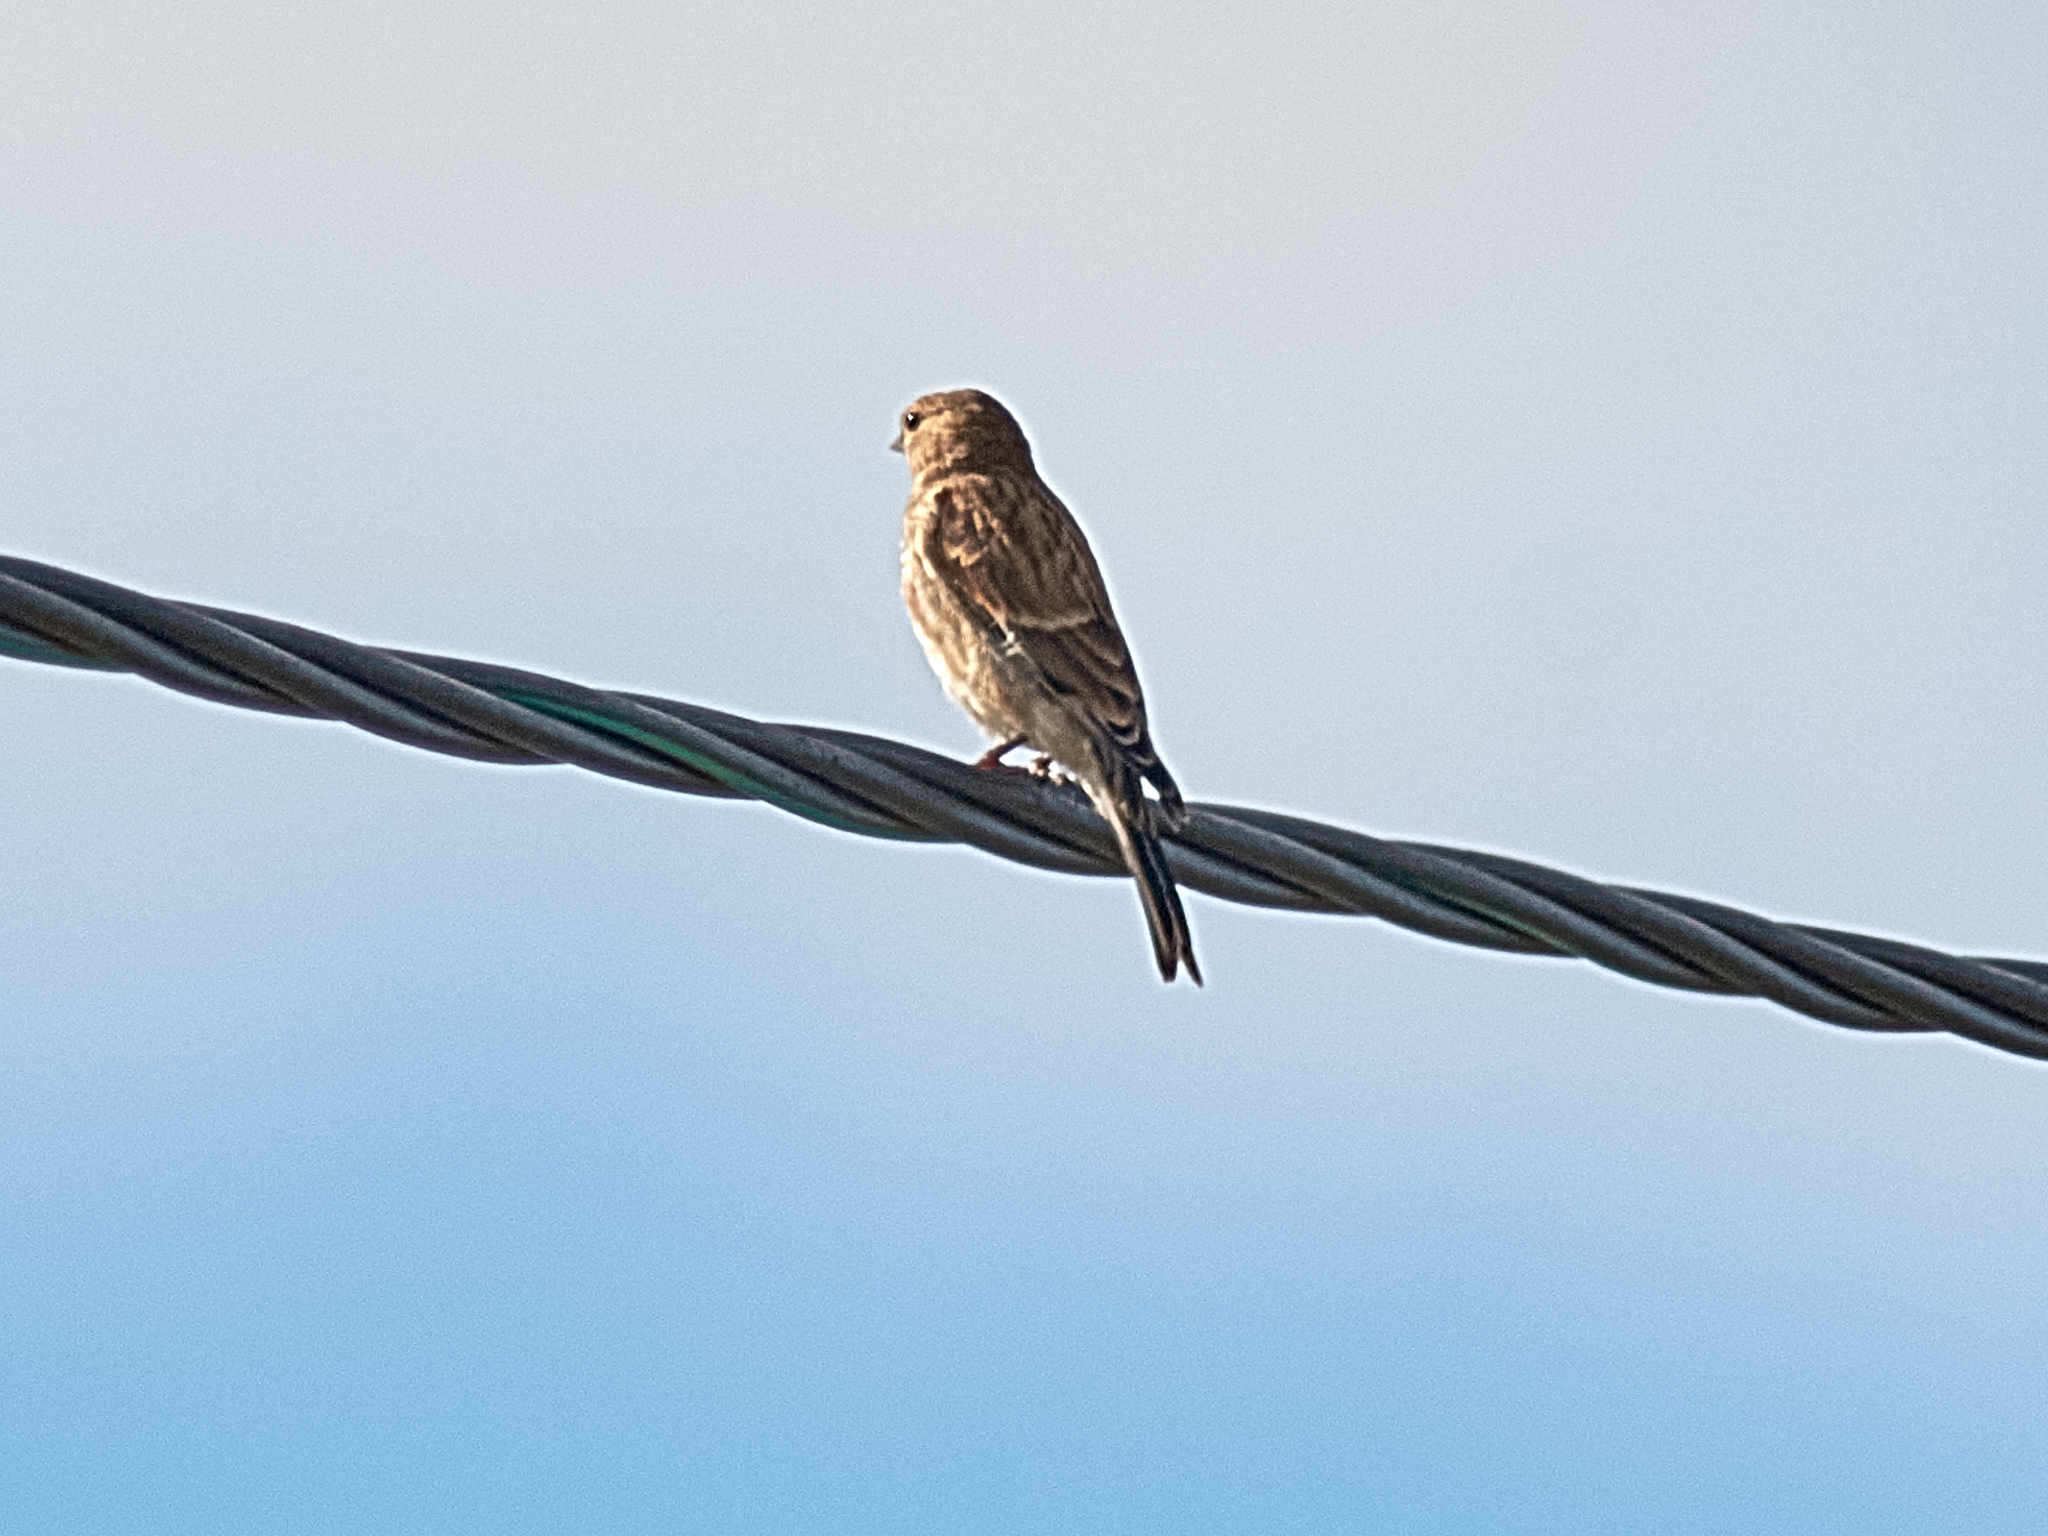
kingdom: Animalia
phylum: Chordata
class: Aves
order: Passeriformes
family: Fringillidae
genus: Linaria
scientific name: Linaria cannabina
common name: Common linnet
